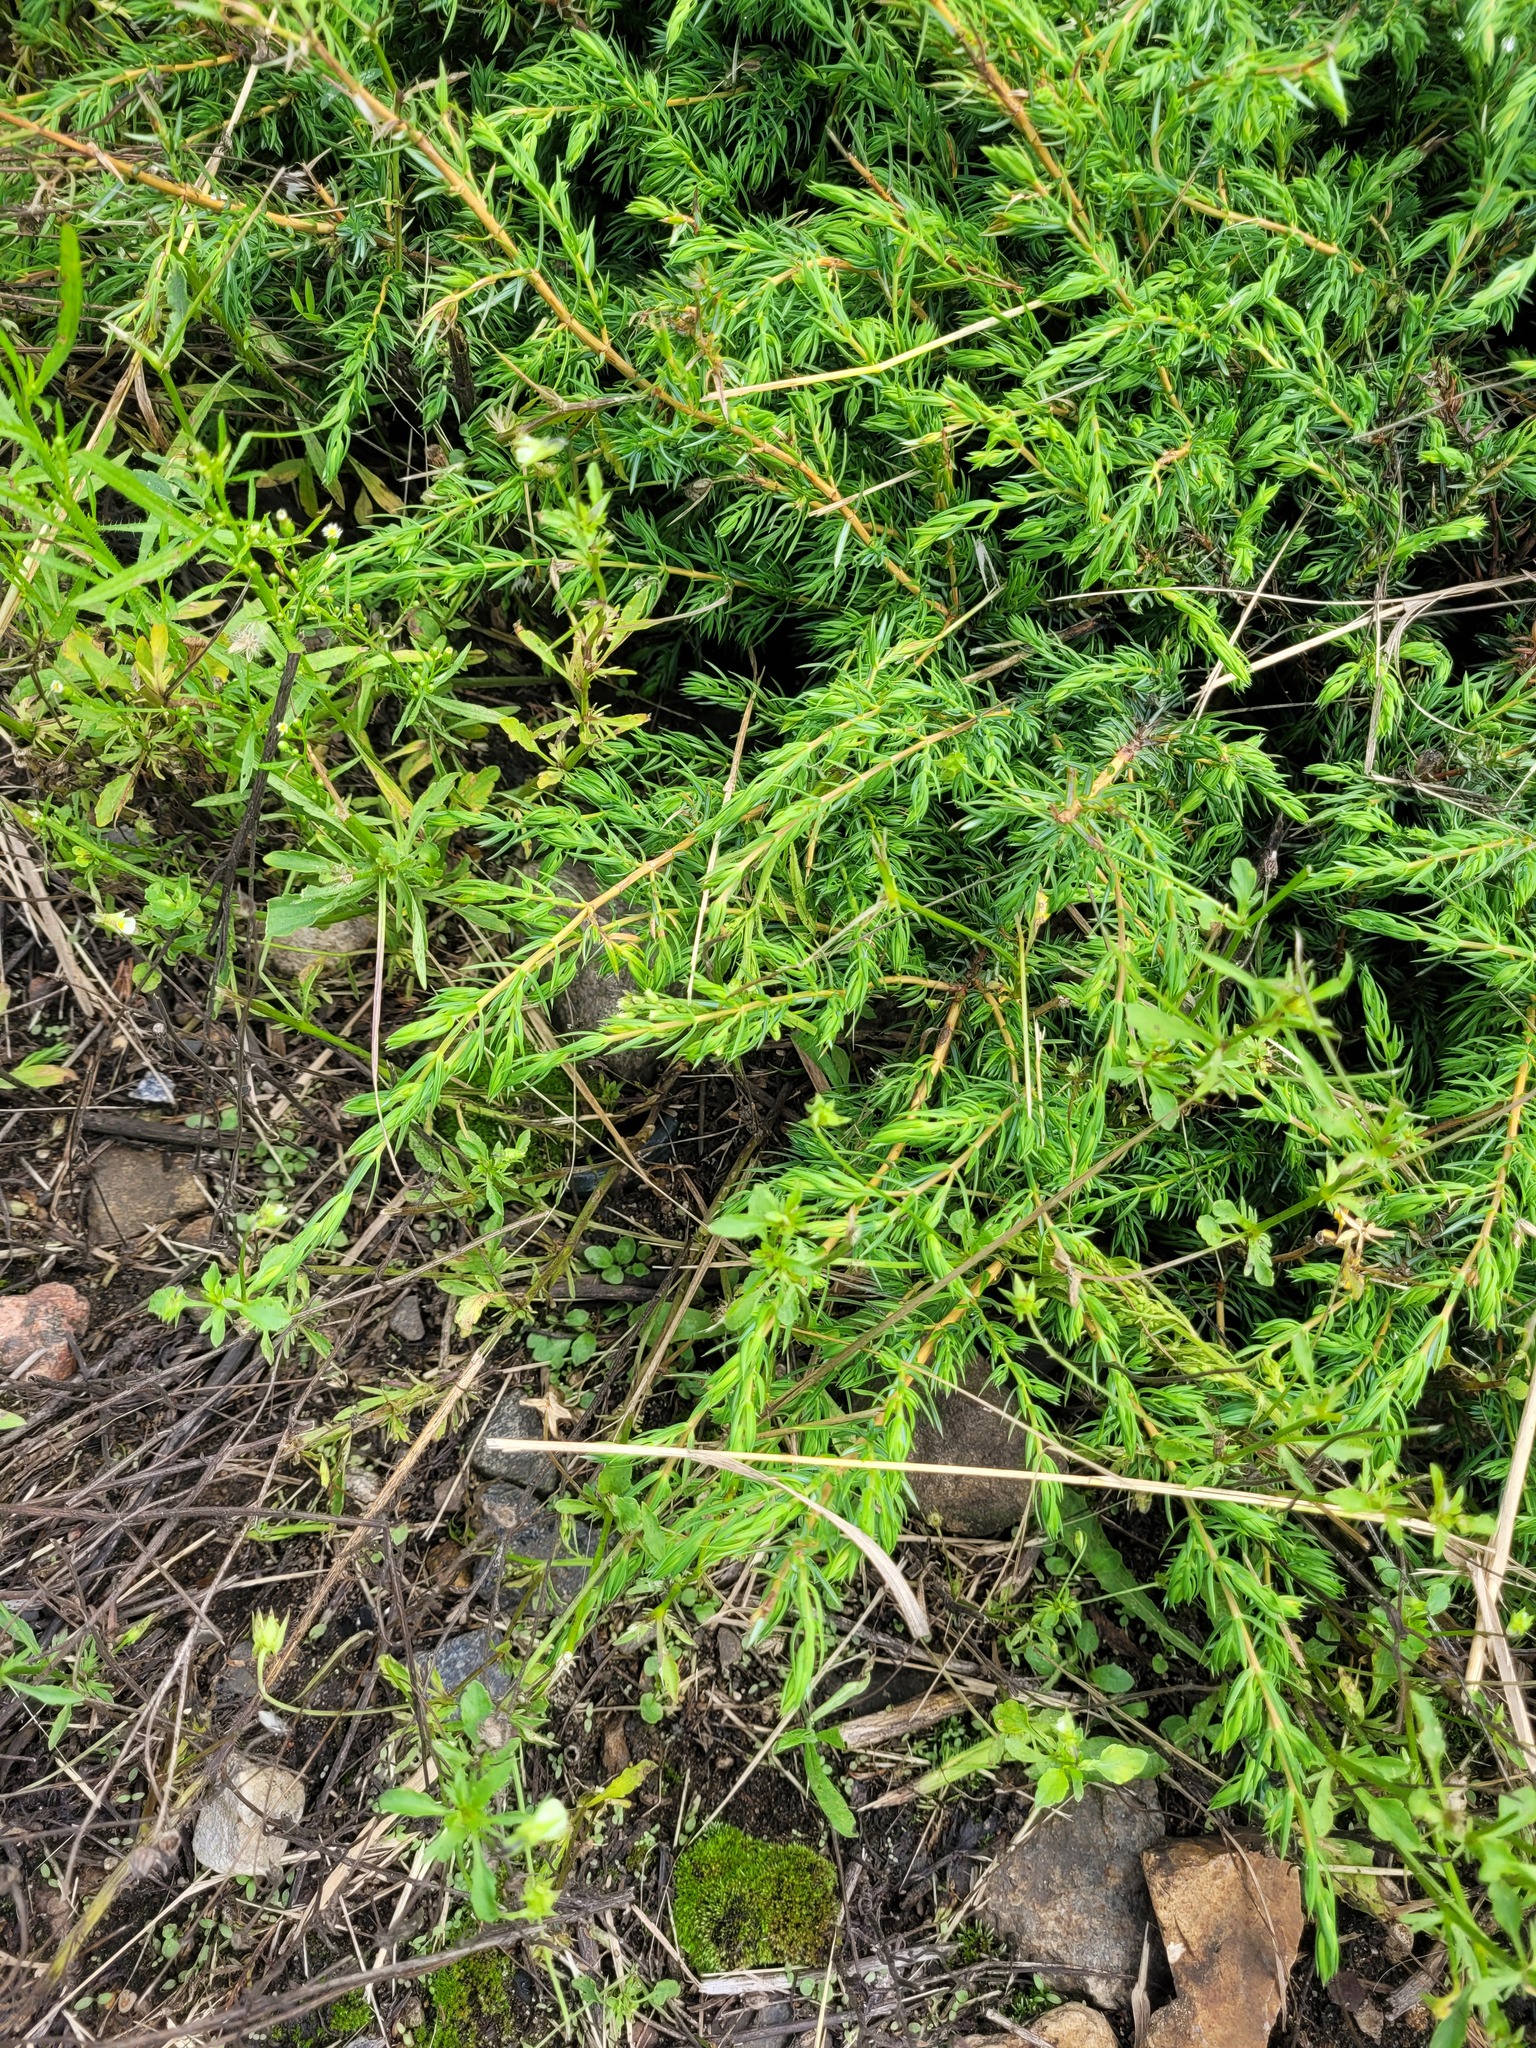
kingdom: Plantae
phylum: Tracheophyta
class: Pinopsida
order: Pinales
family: Cupressaceae
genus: Juniperus
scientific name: Juniperus communis
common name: Common juniper
